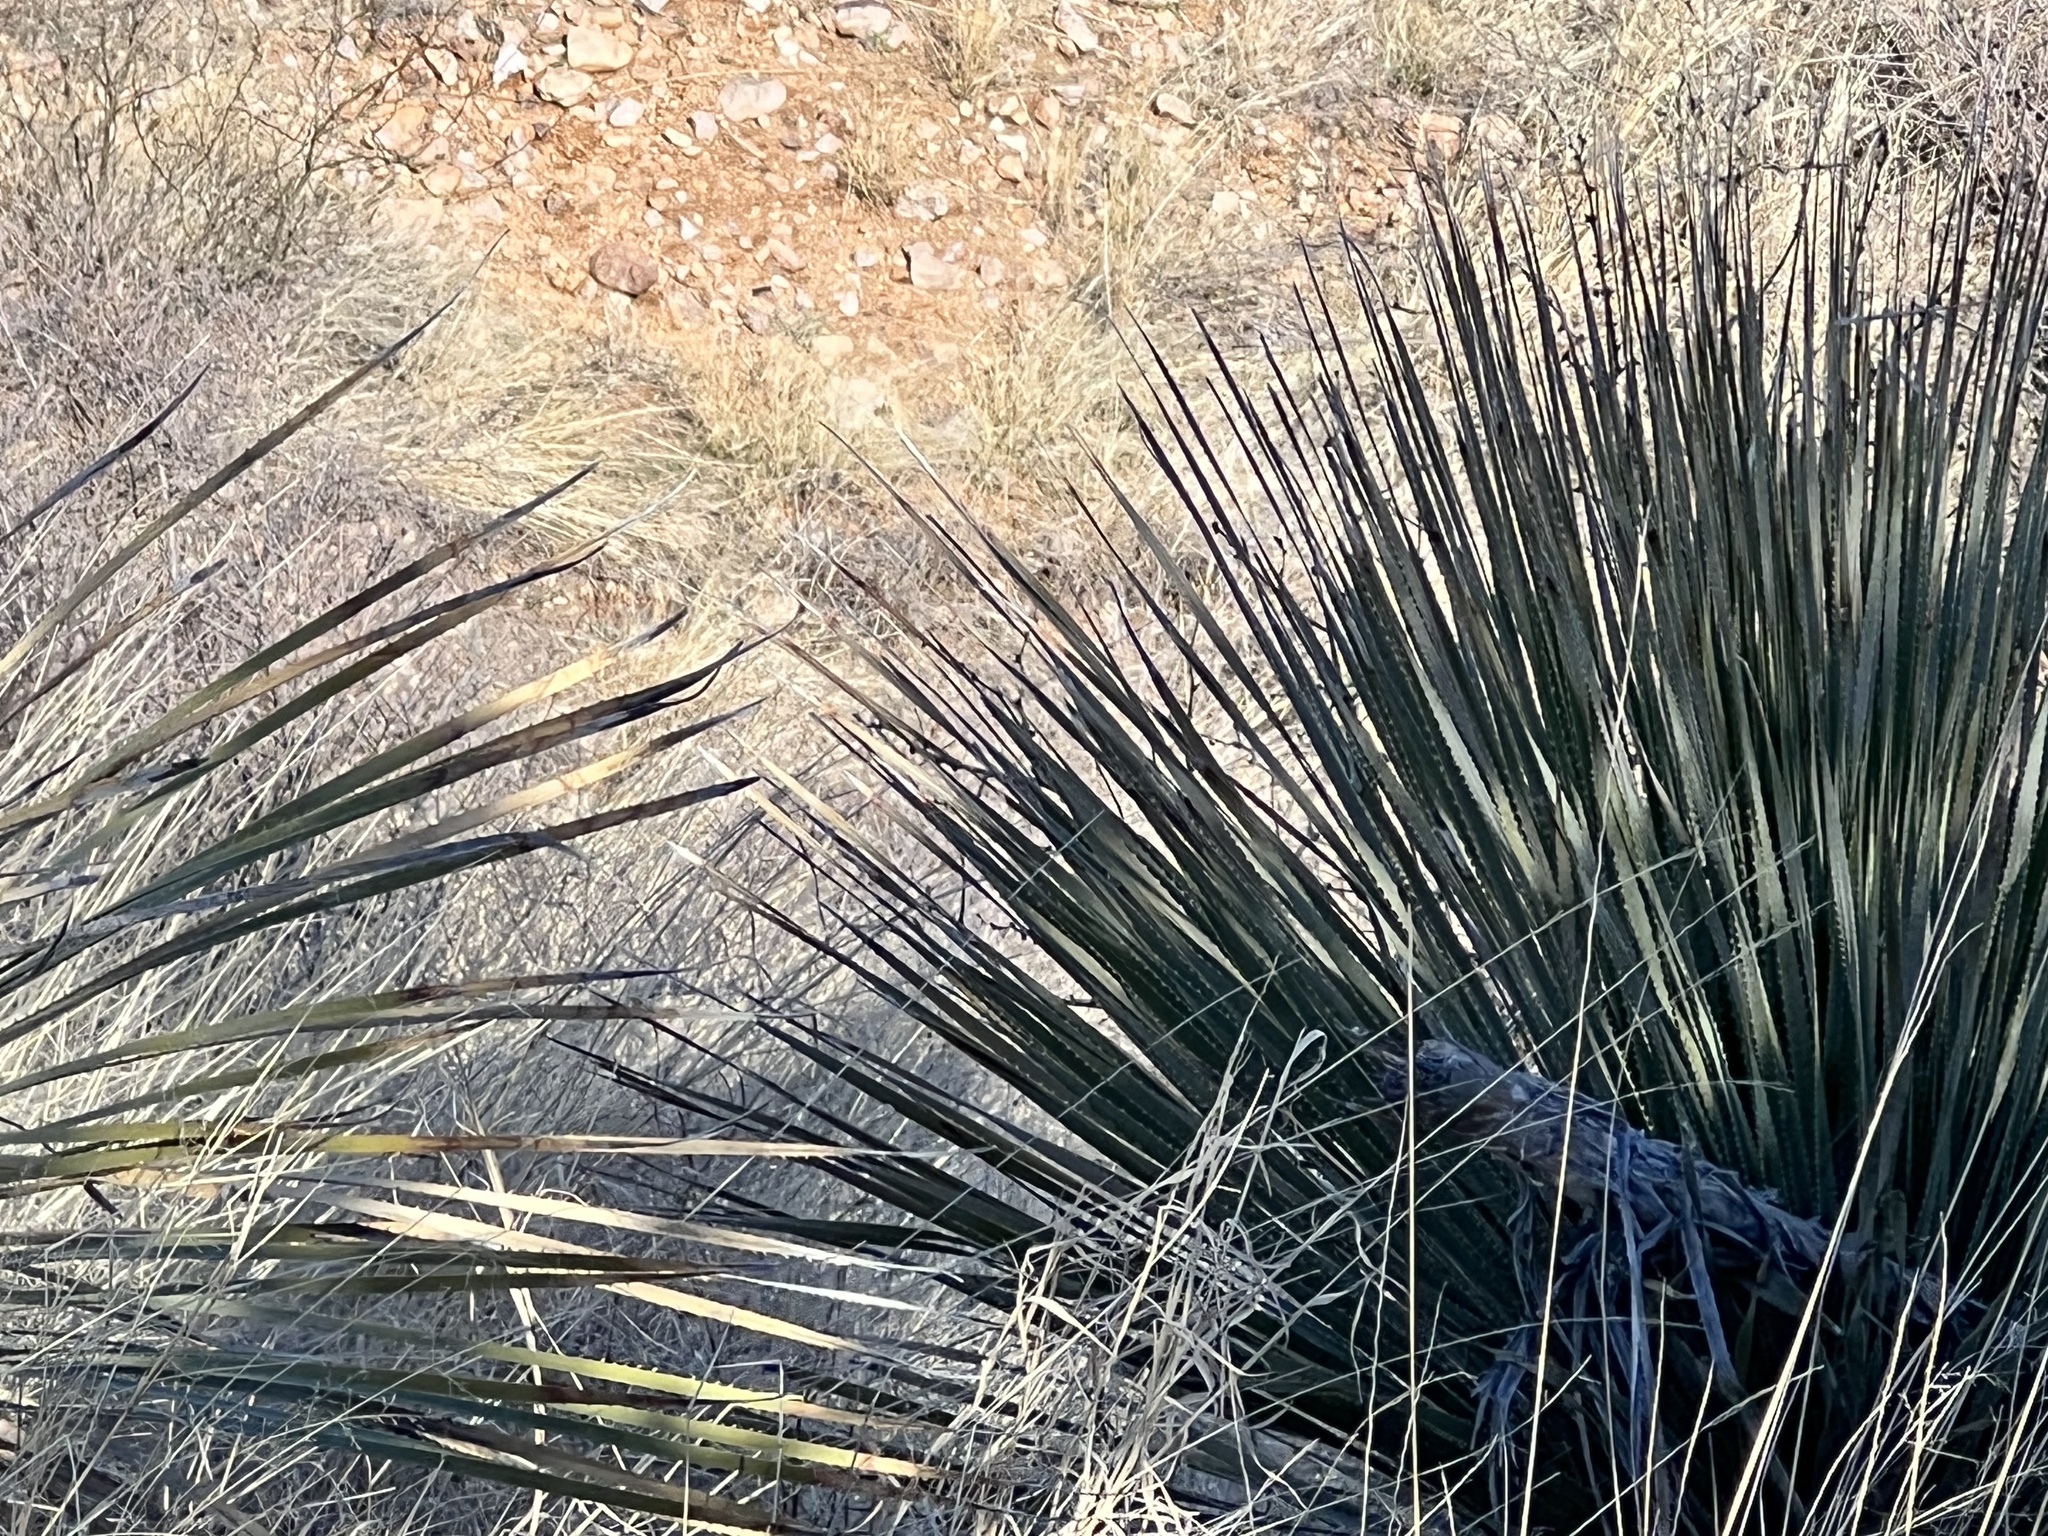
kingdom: Plantae
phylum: Tracheophyta
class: Liliopsida
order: Asparagales
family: Asparagaceae
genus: Dasylirion
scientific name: Dasylirion wheeleri
